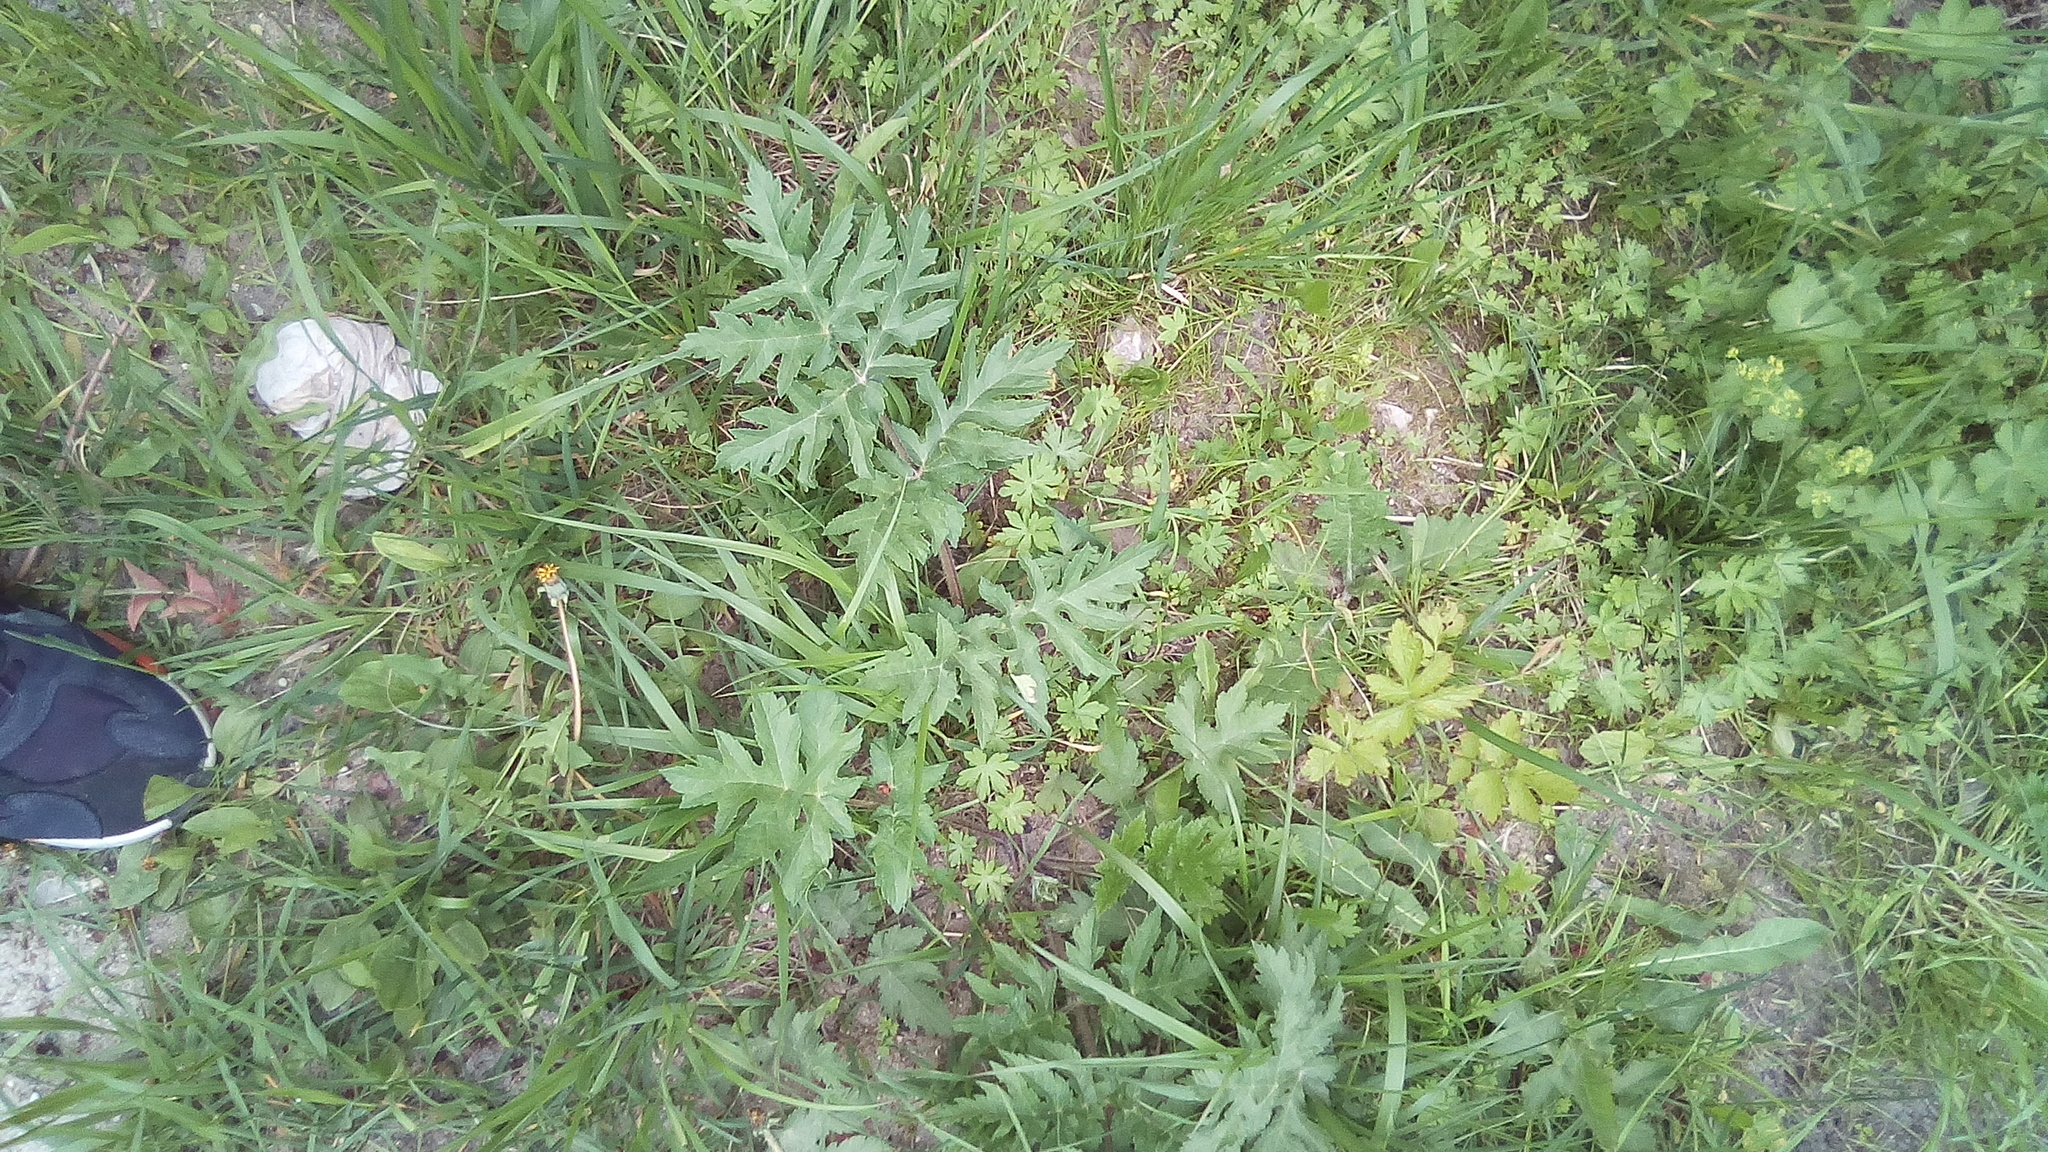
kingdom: Plantae
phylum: Tracheophyta
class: Magnoliopsida
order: Apiales
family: Apiaceae
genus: Heracleum
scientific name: Heracleum sphondylium
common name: Hogweed
